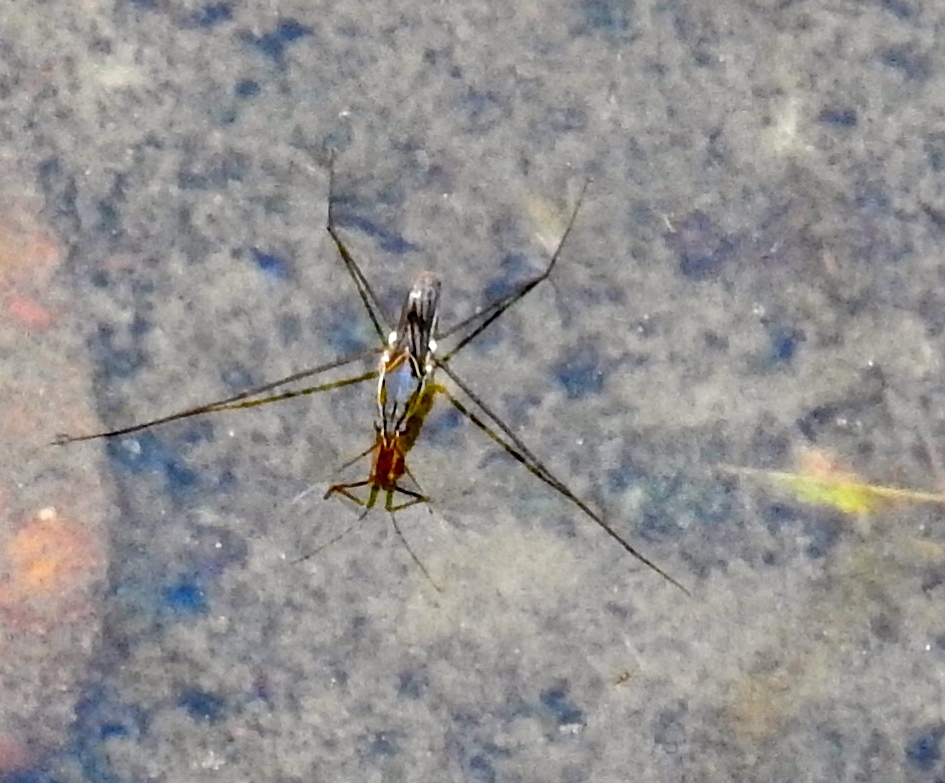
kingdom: Animalia
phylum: Arthropoda
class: Insecta
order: Hemiptera
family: Gerridae
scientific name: Gerridae
